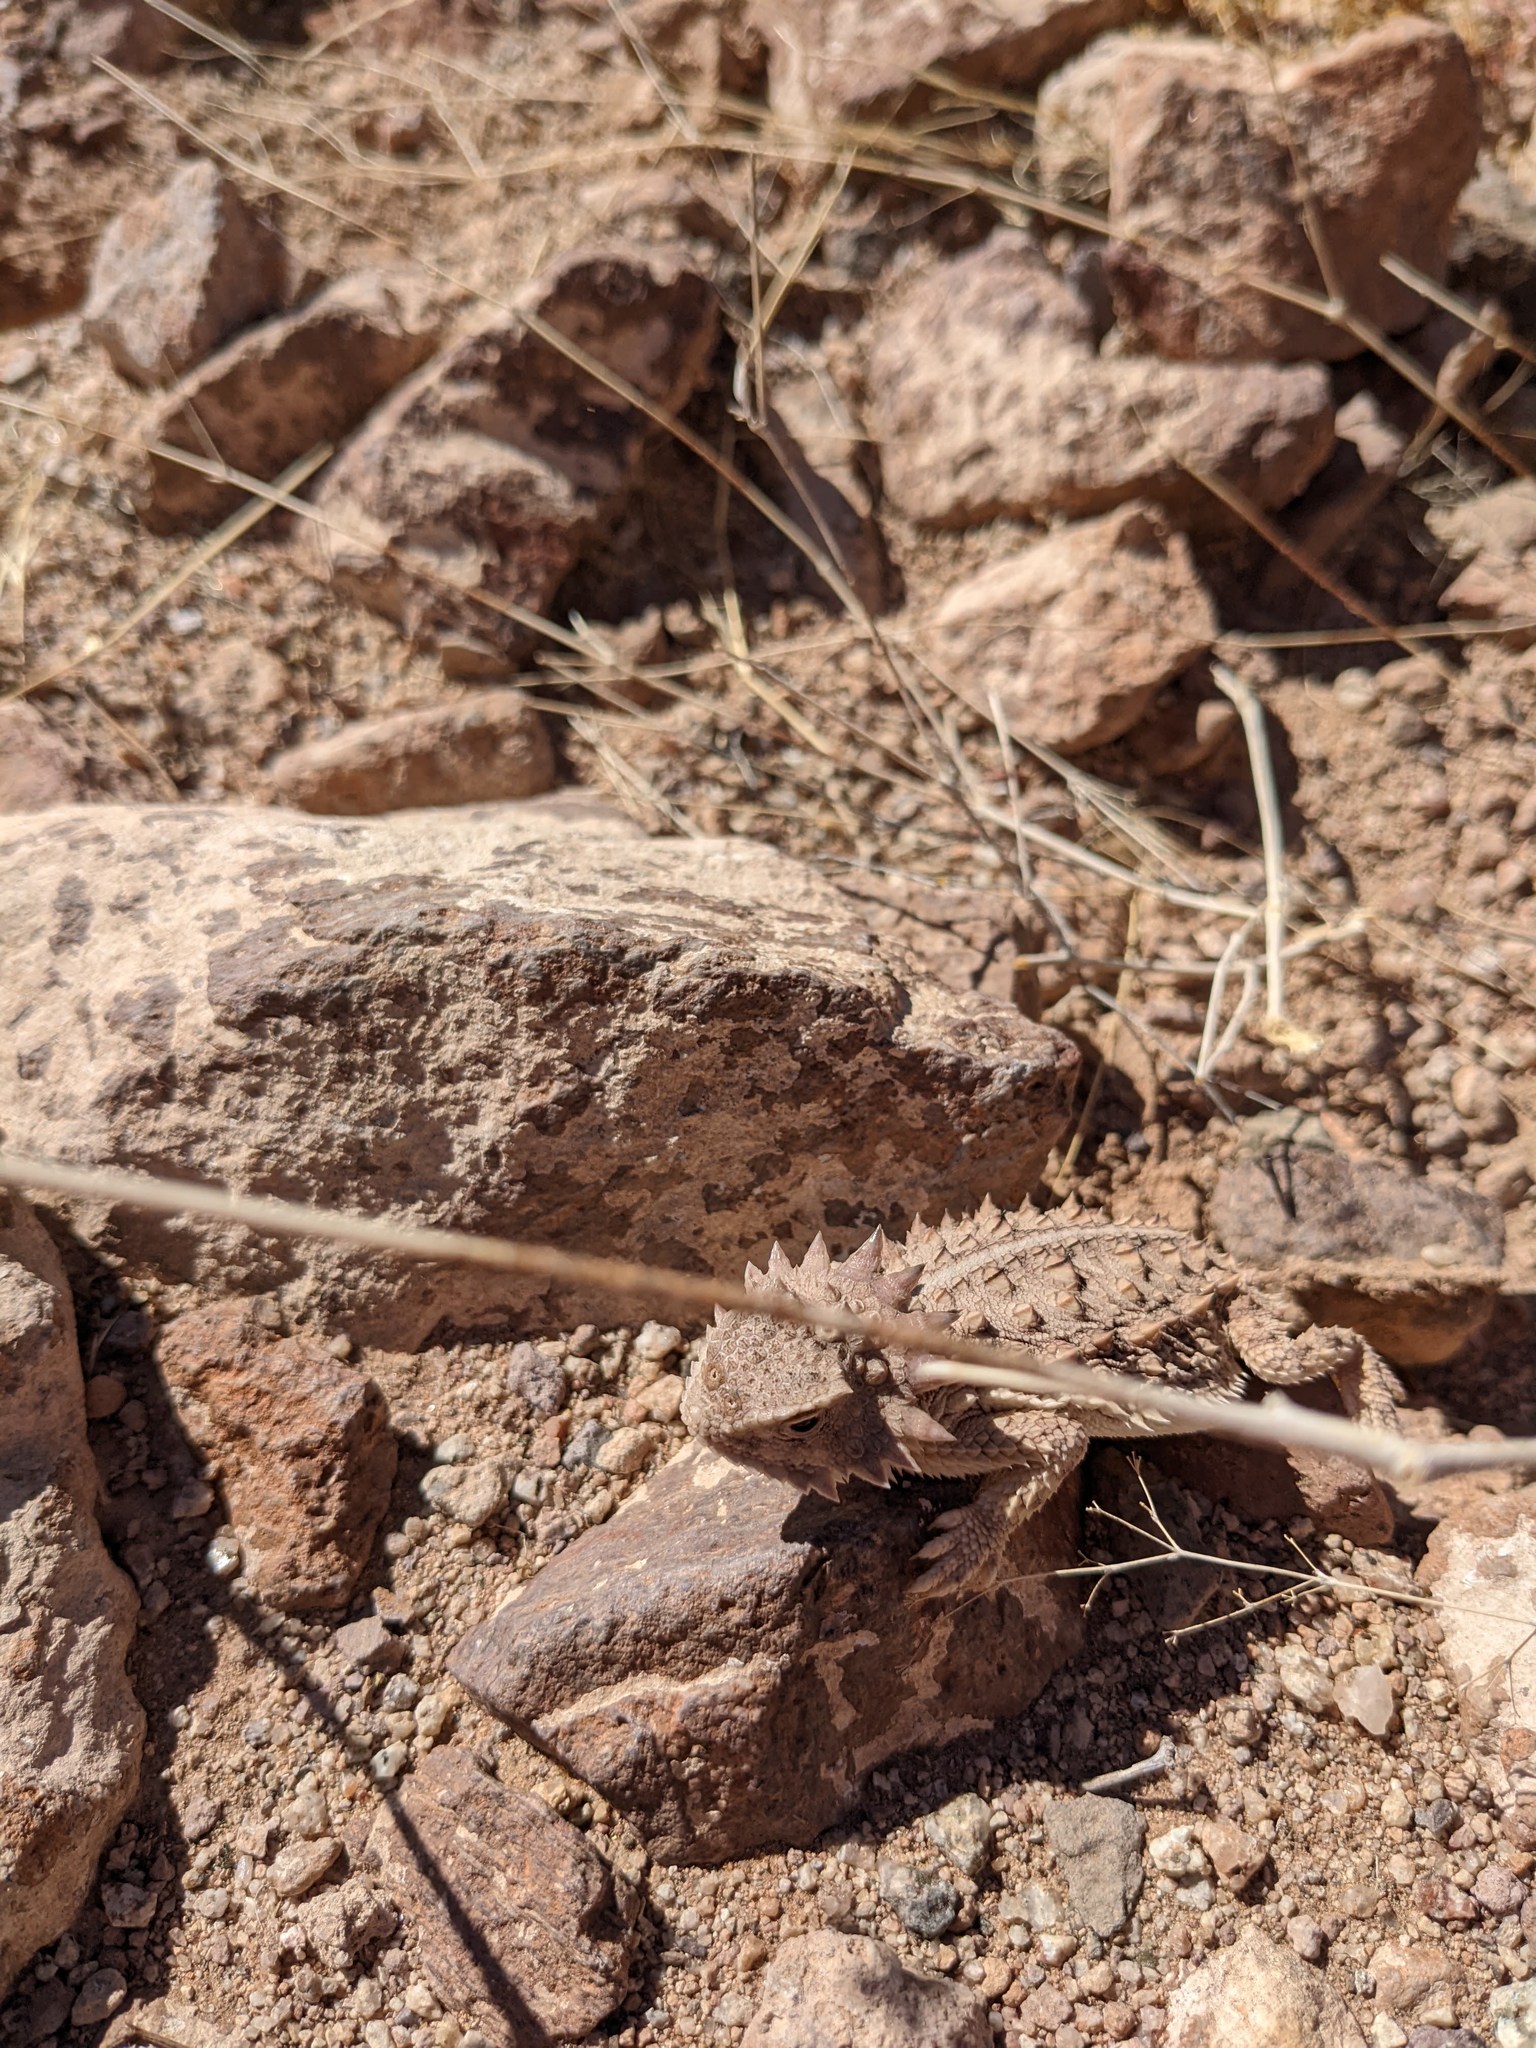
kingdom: Animalia
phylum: Chordata
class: Squamata
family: Phrynosomatidae
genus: Phrynosoma
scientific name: Phrynosoma solare
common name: Regal horned lizard
